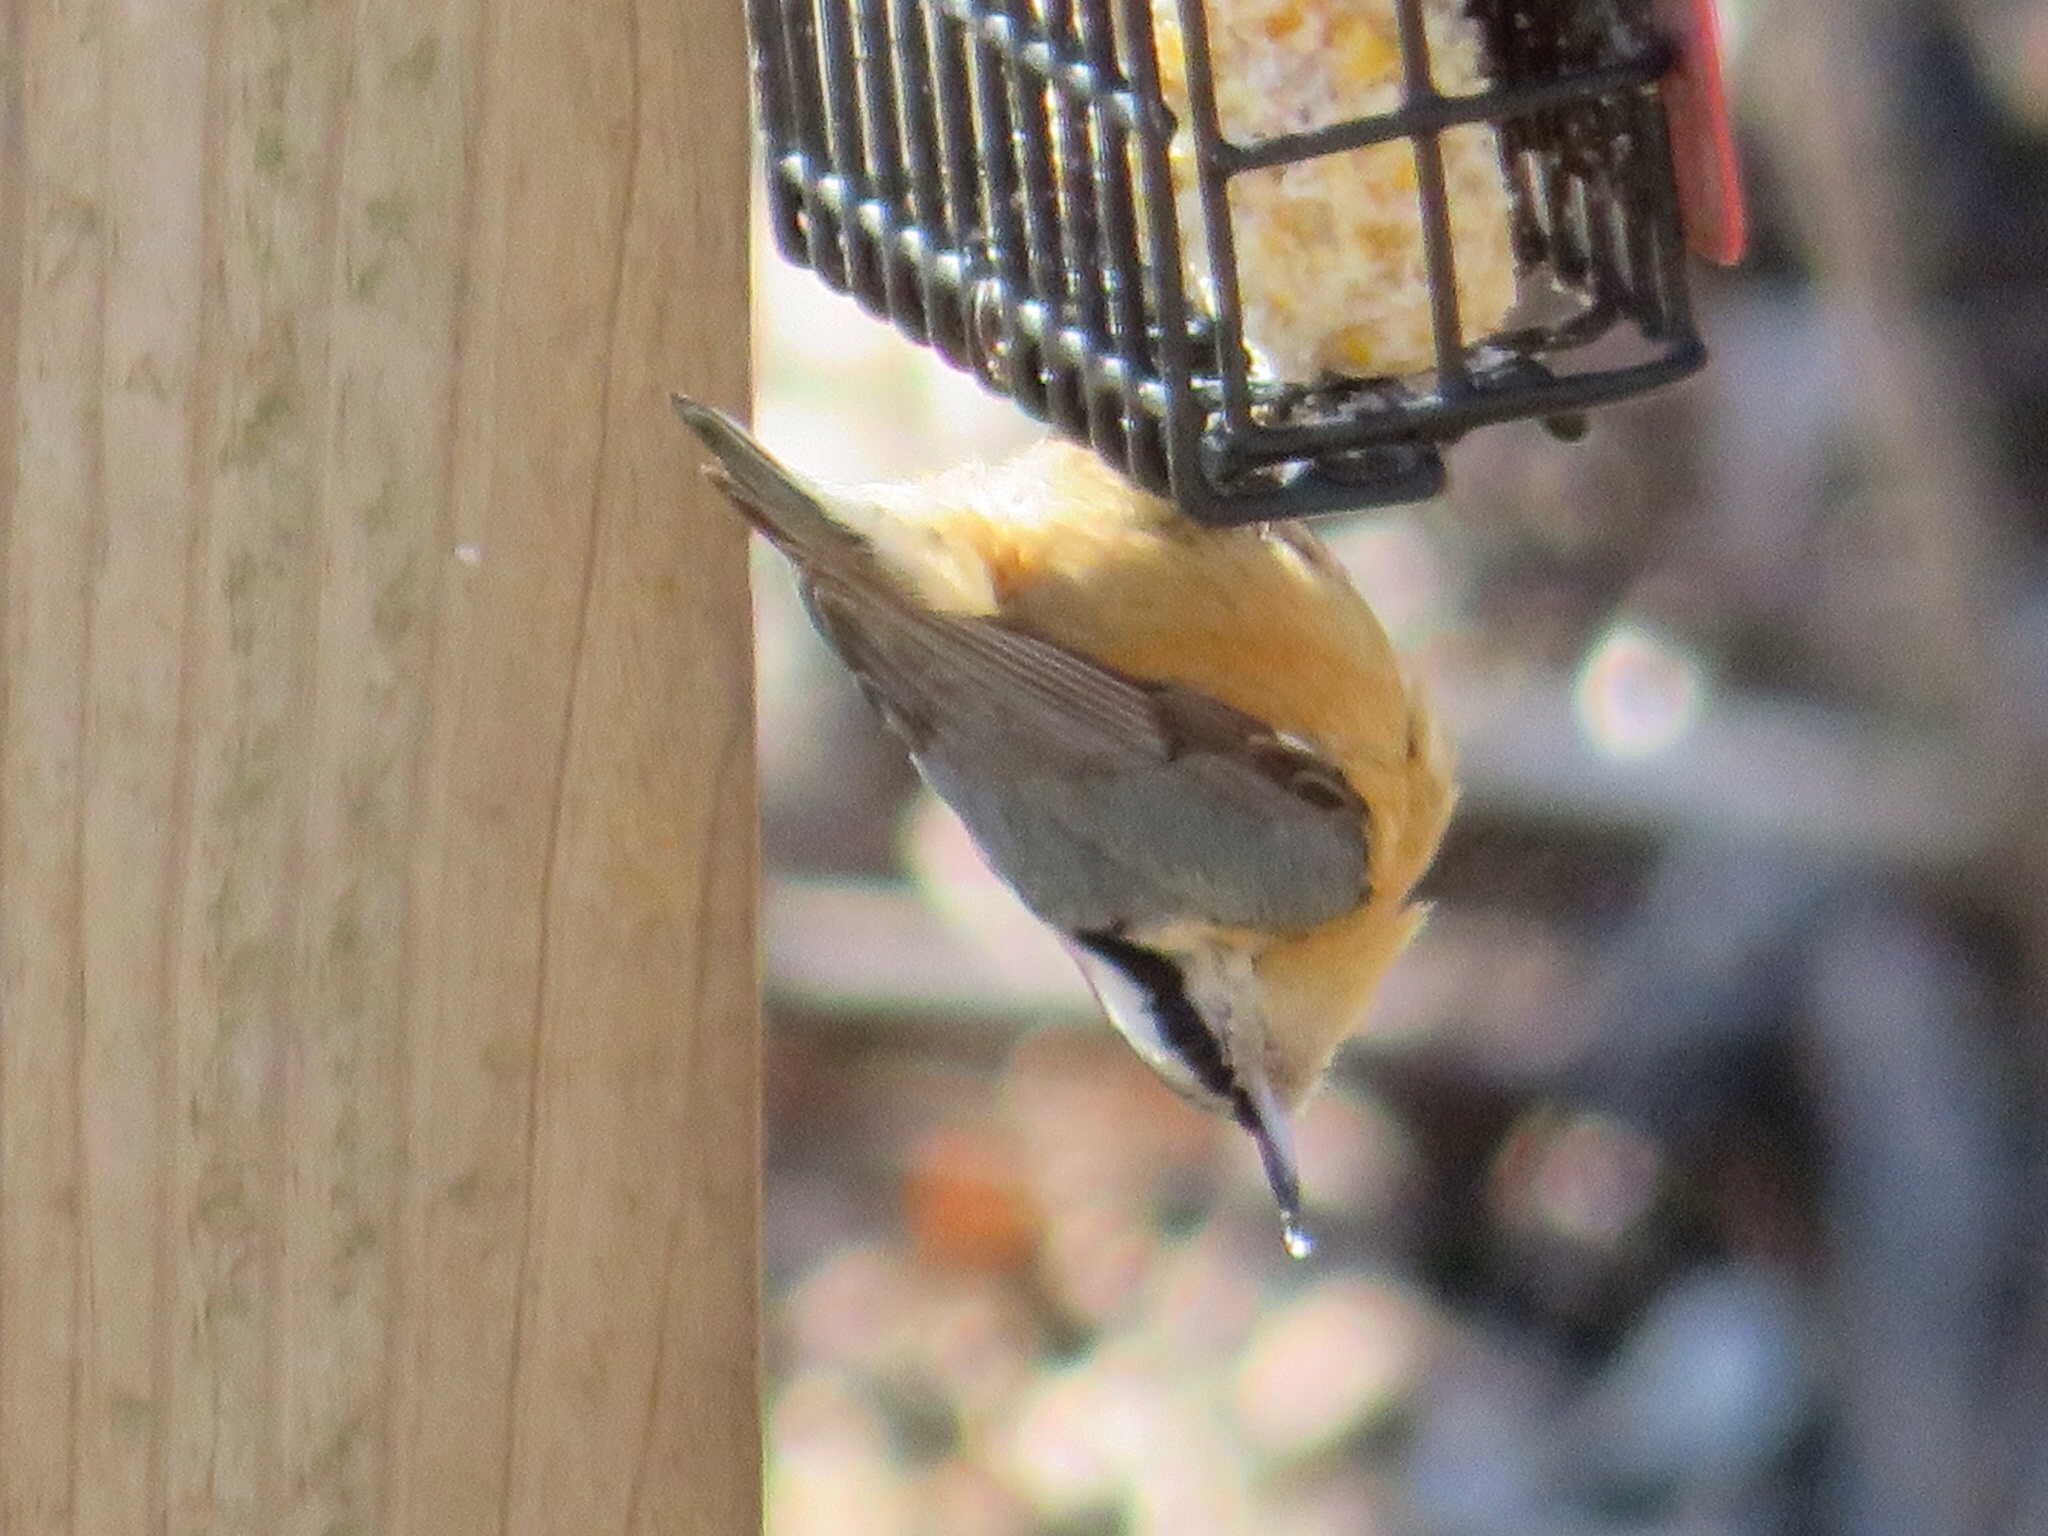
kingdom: Animalia
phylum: Chordata
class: Aves
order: Passeriformes
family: Sittidae
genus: Sitta
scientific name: Sitta canadensis
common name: Red-breasted nuthatch
